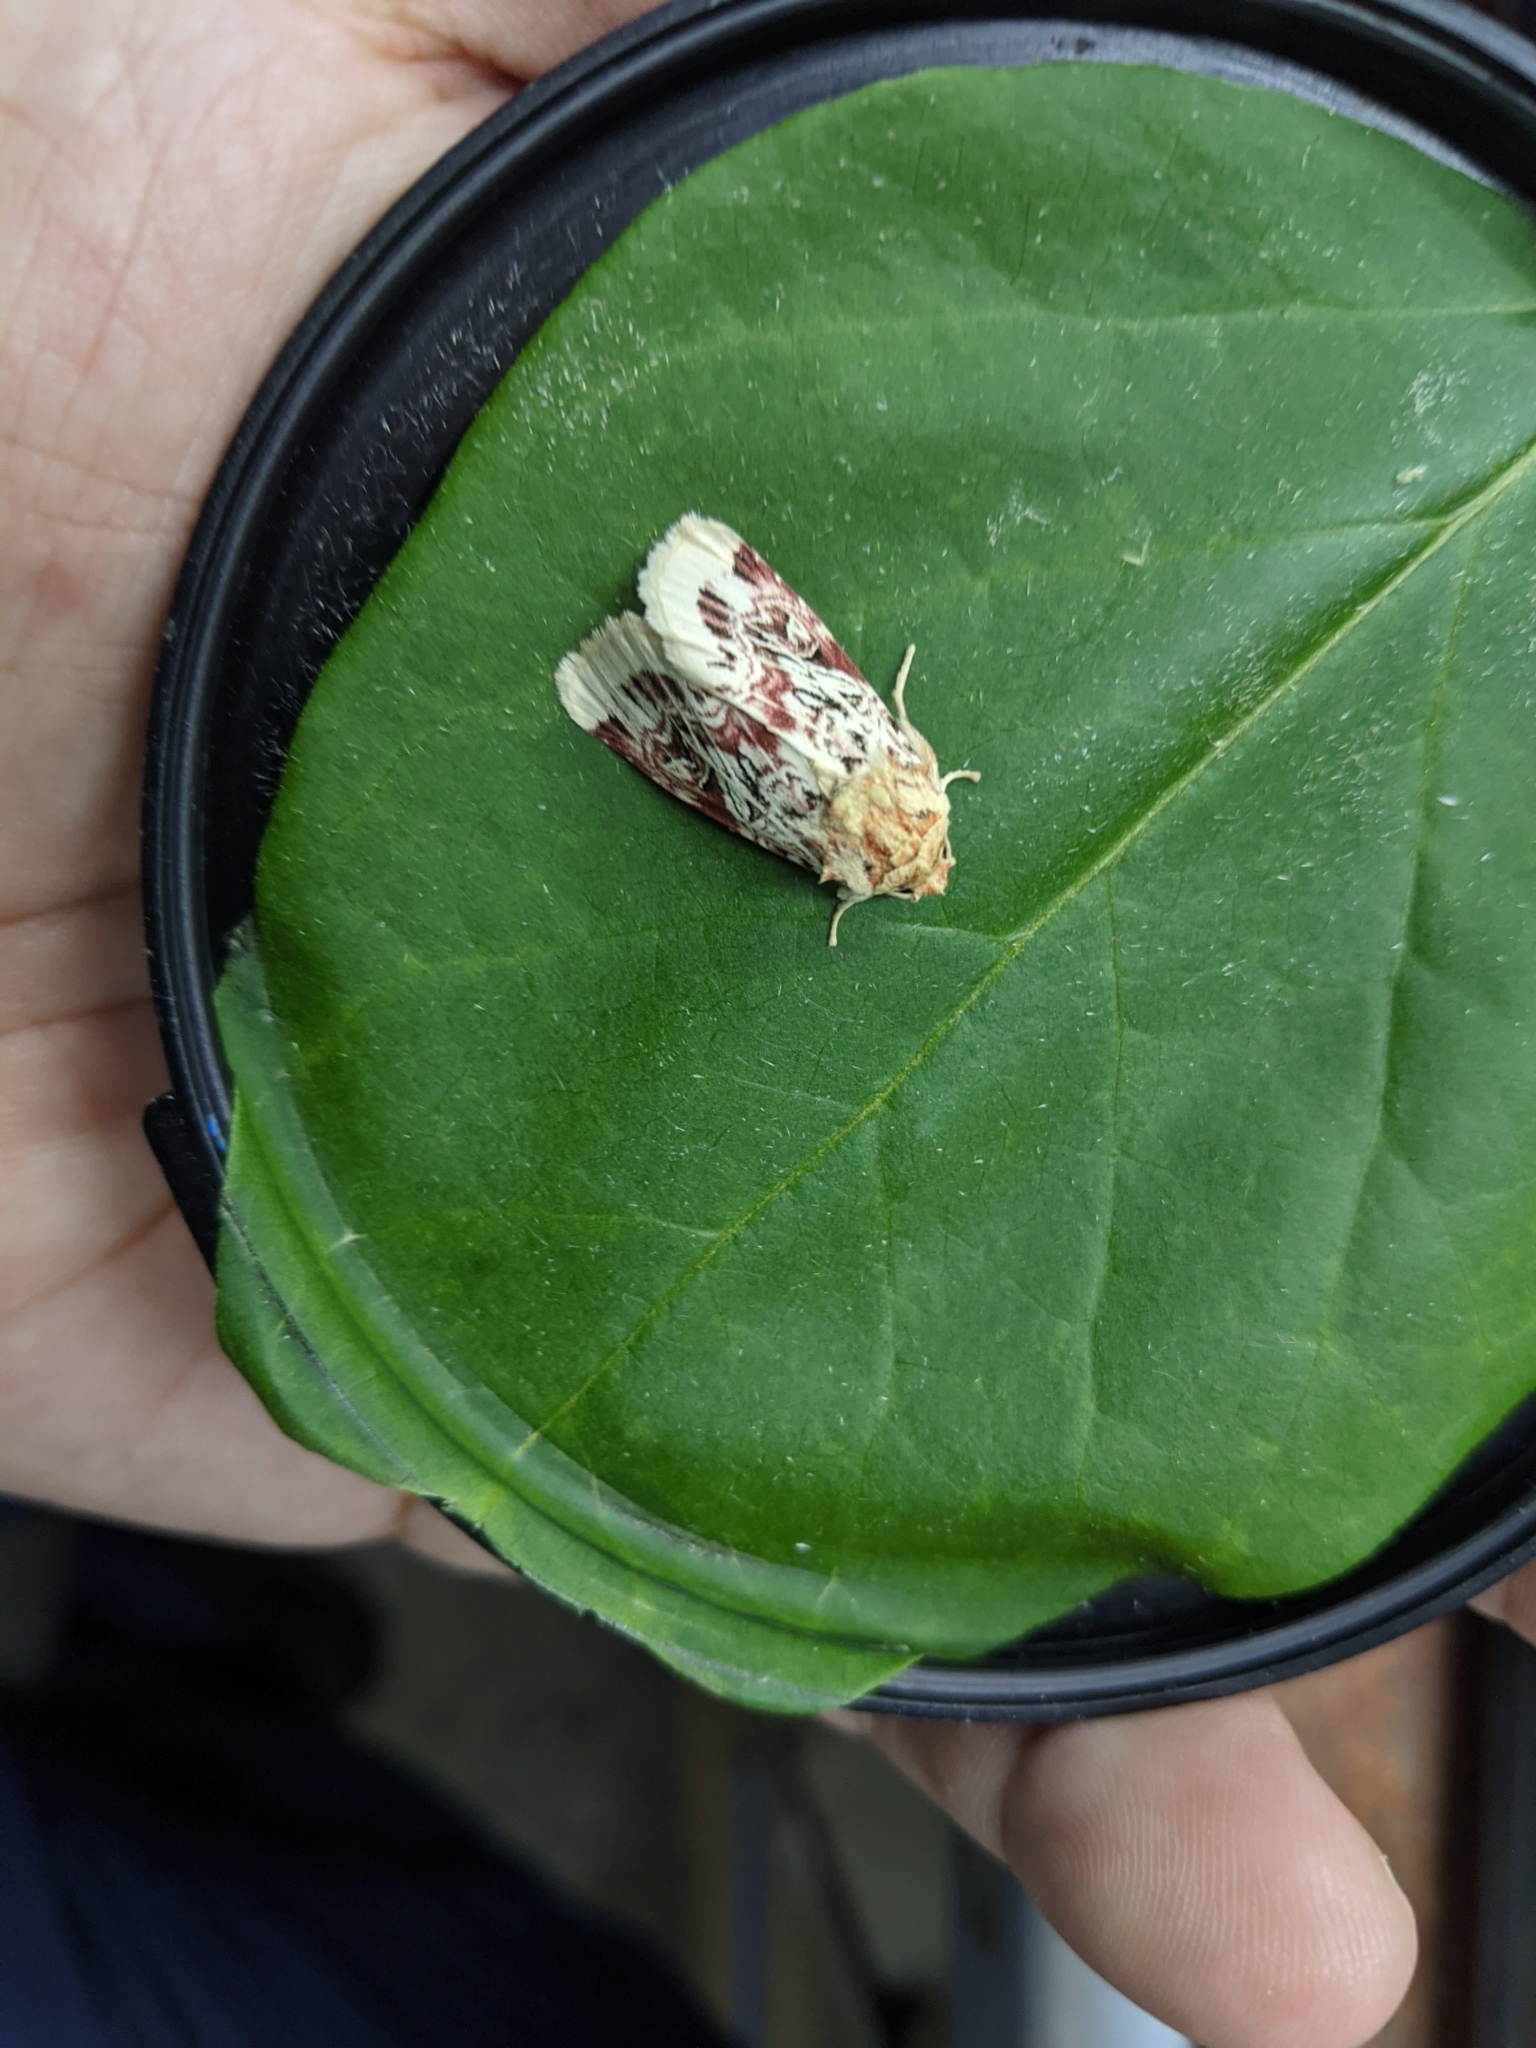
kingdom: Animalia
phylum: Arthropoda
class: Insecta
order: Lepidoptera
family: Noctuidae
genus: Spodoptera
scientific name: Spodoptera picta
